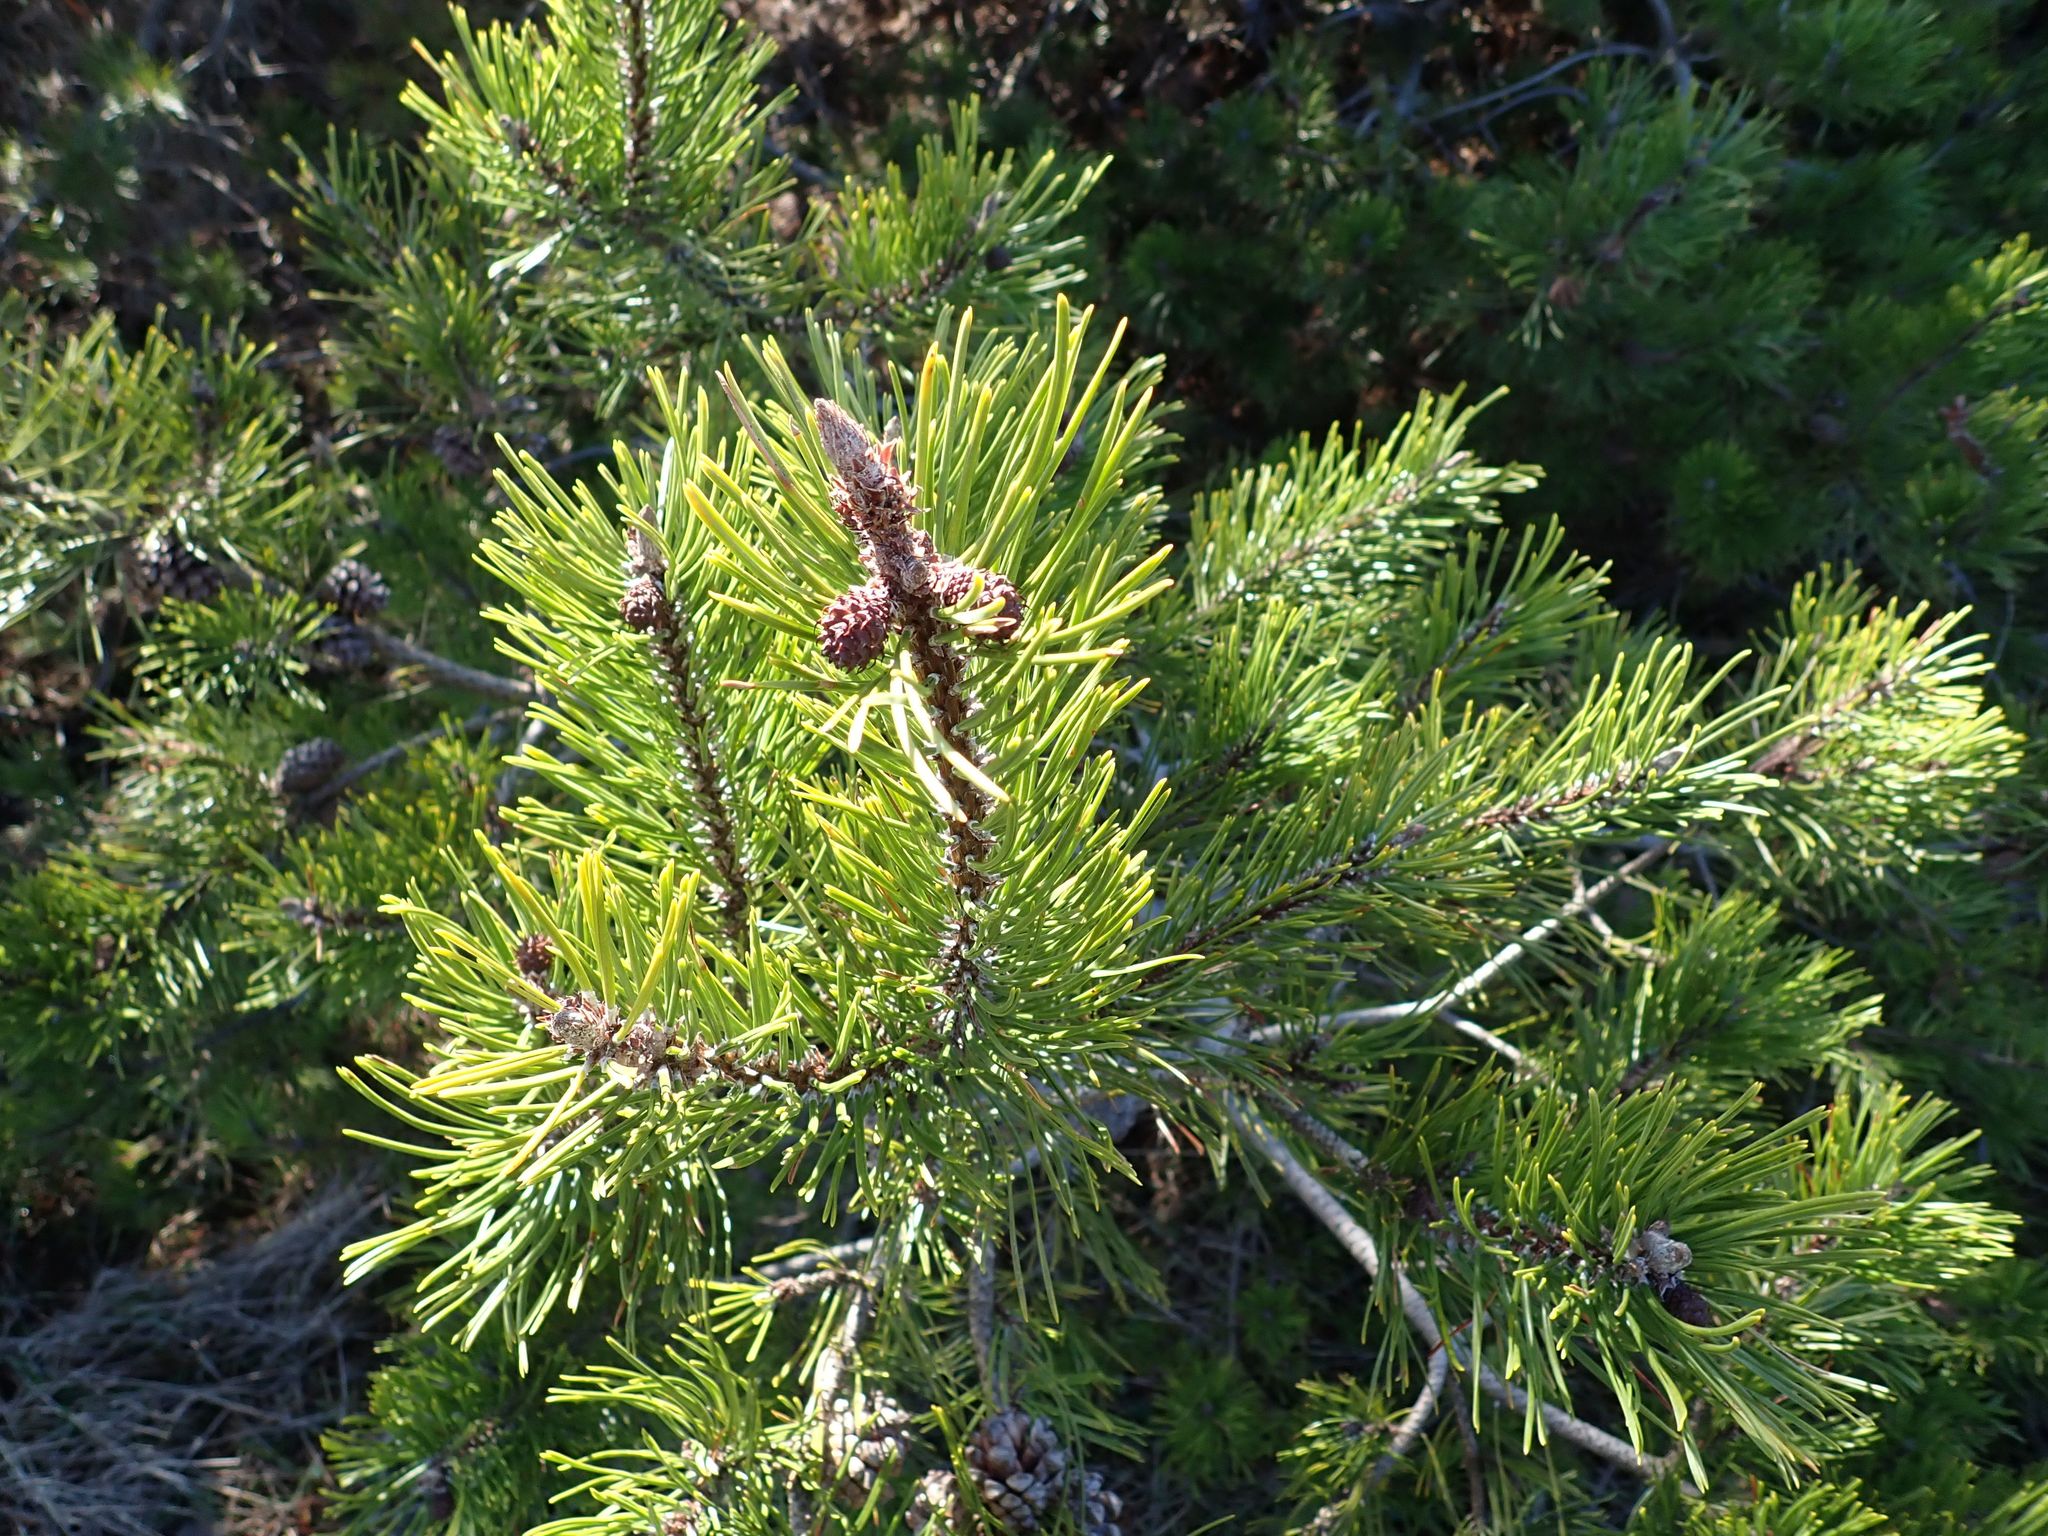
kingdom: Plantae
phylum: Tracheophyta
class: Pinopsida
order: Pinales
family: Pinaceae
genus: Pinus
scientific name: Pinus contorta
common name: Lodgepole pine
